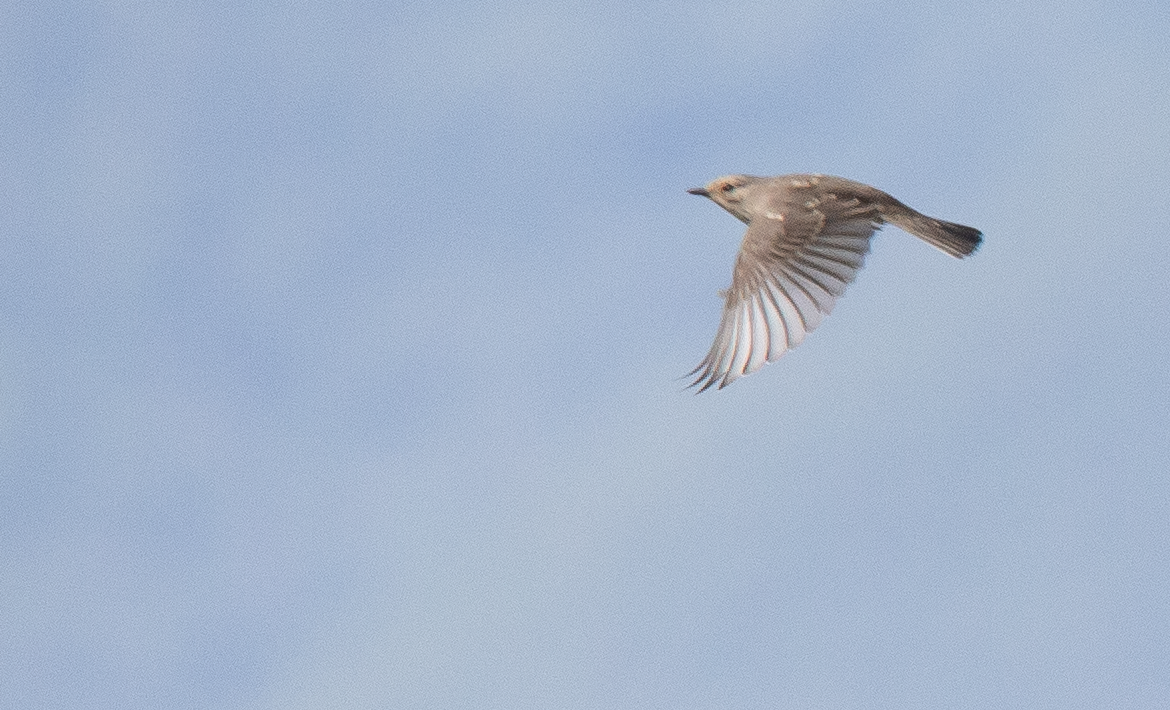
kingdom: Animalia
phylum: Chordata
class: Aves
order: Passeriformes
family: Muscicapidae
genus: Muscicapa
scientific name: Muscicapa striata
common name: Spotted flycatcher
